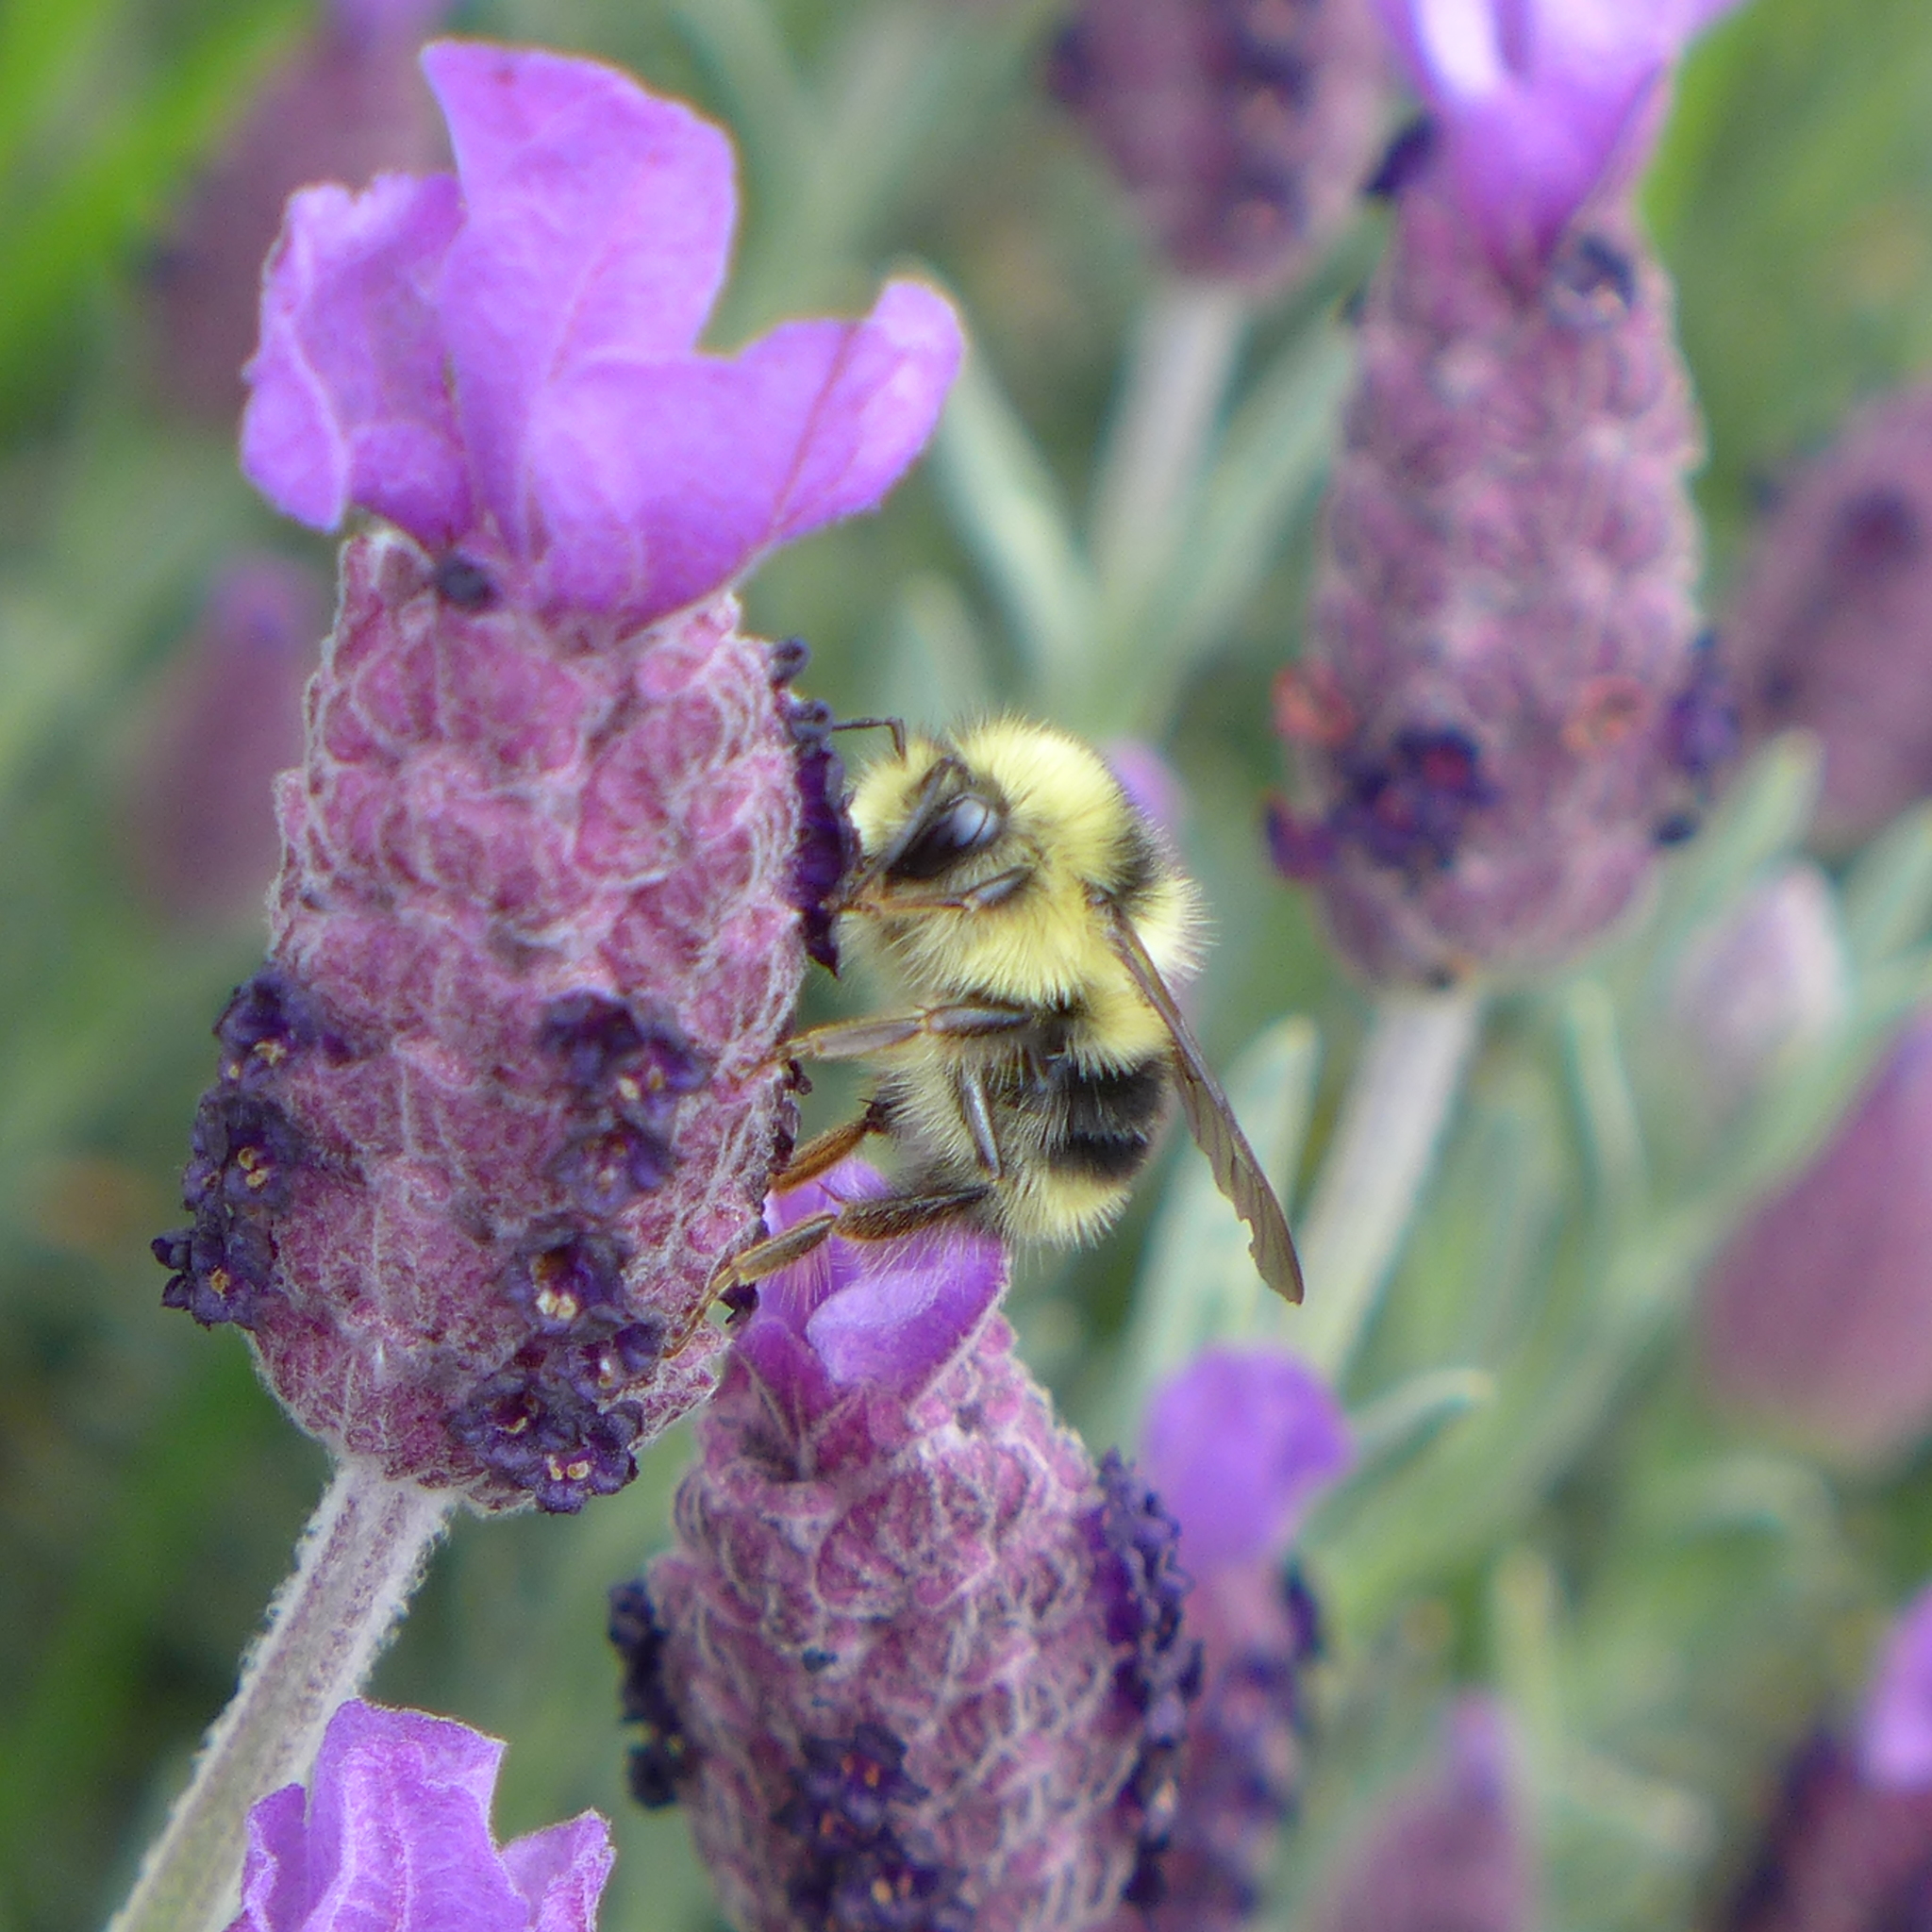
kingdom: Animalia
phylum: Arthropoda
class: Insecta
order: Hymenoptera
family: Apidae
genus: Bombus
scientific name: Bombus melanopygus
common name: Black tail bumble bee
